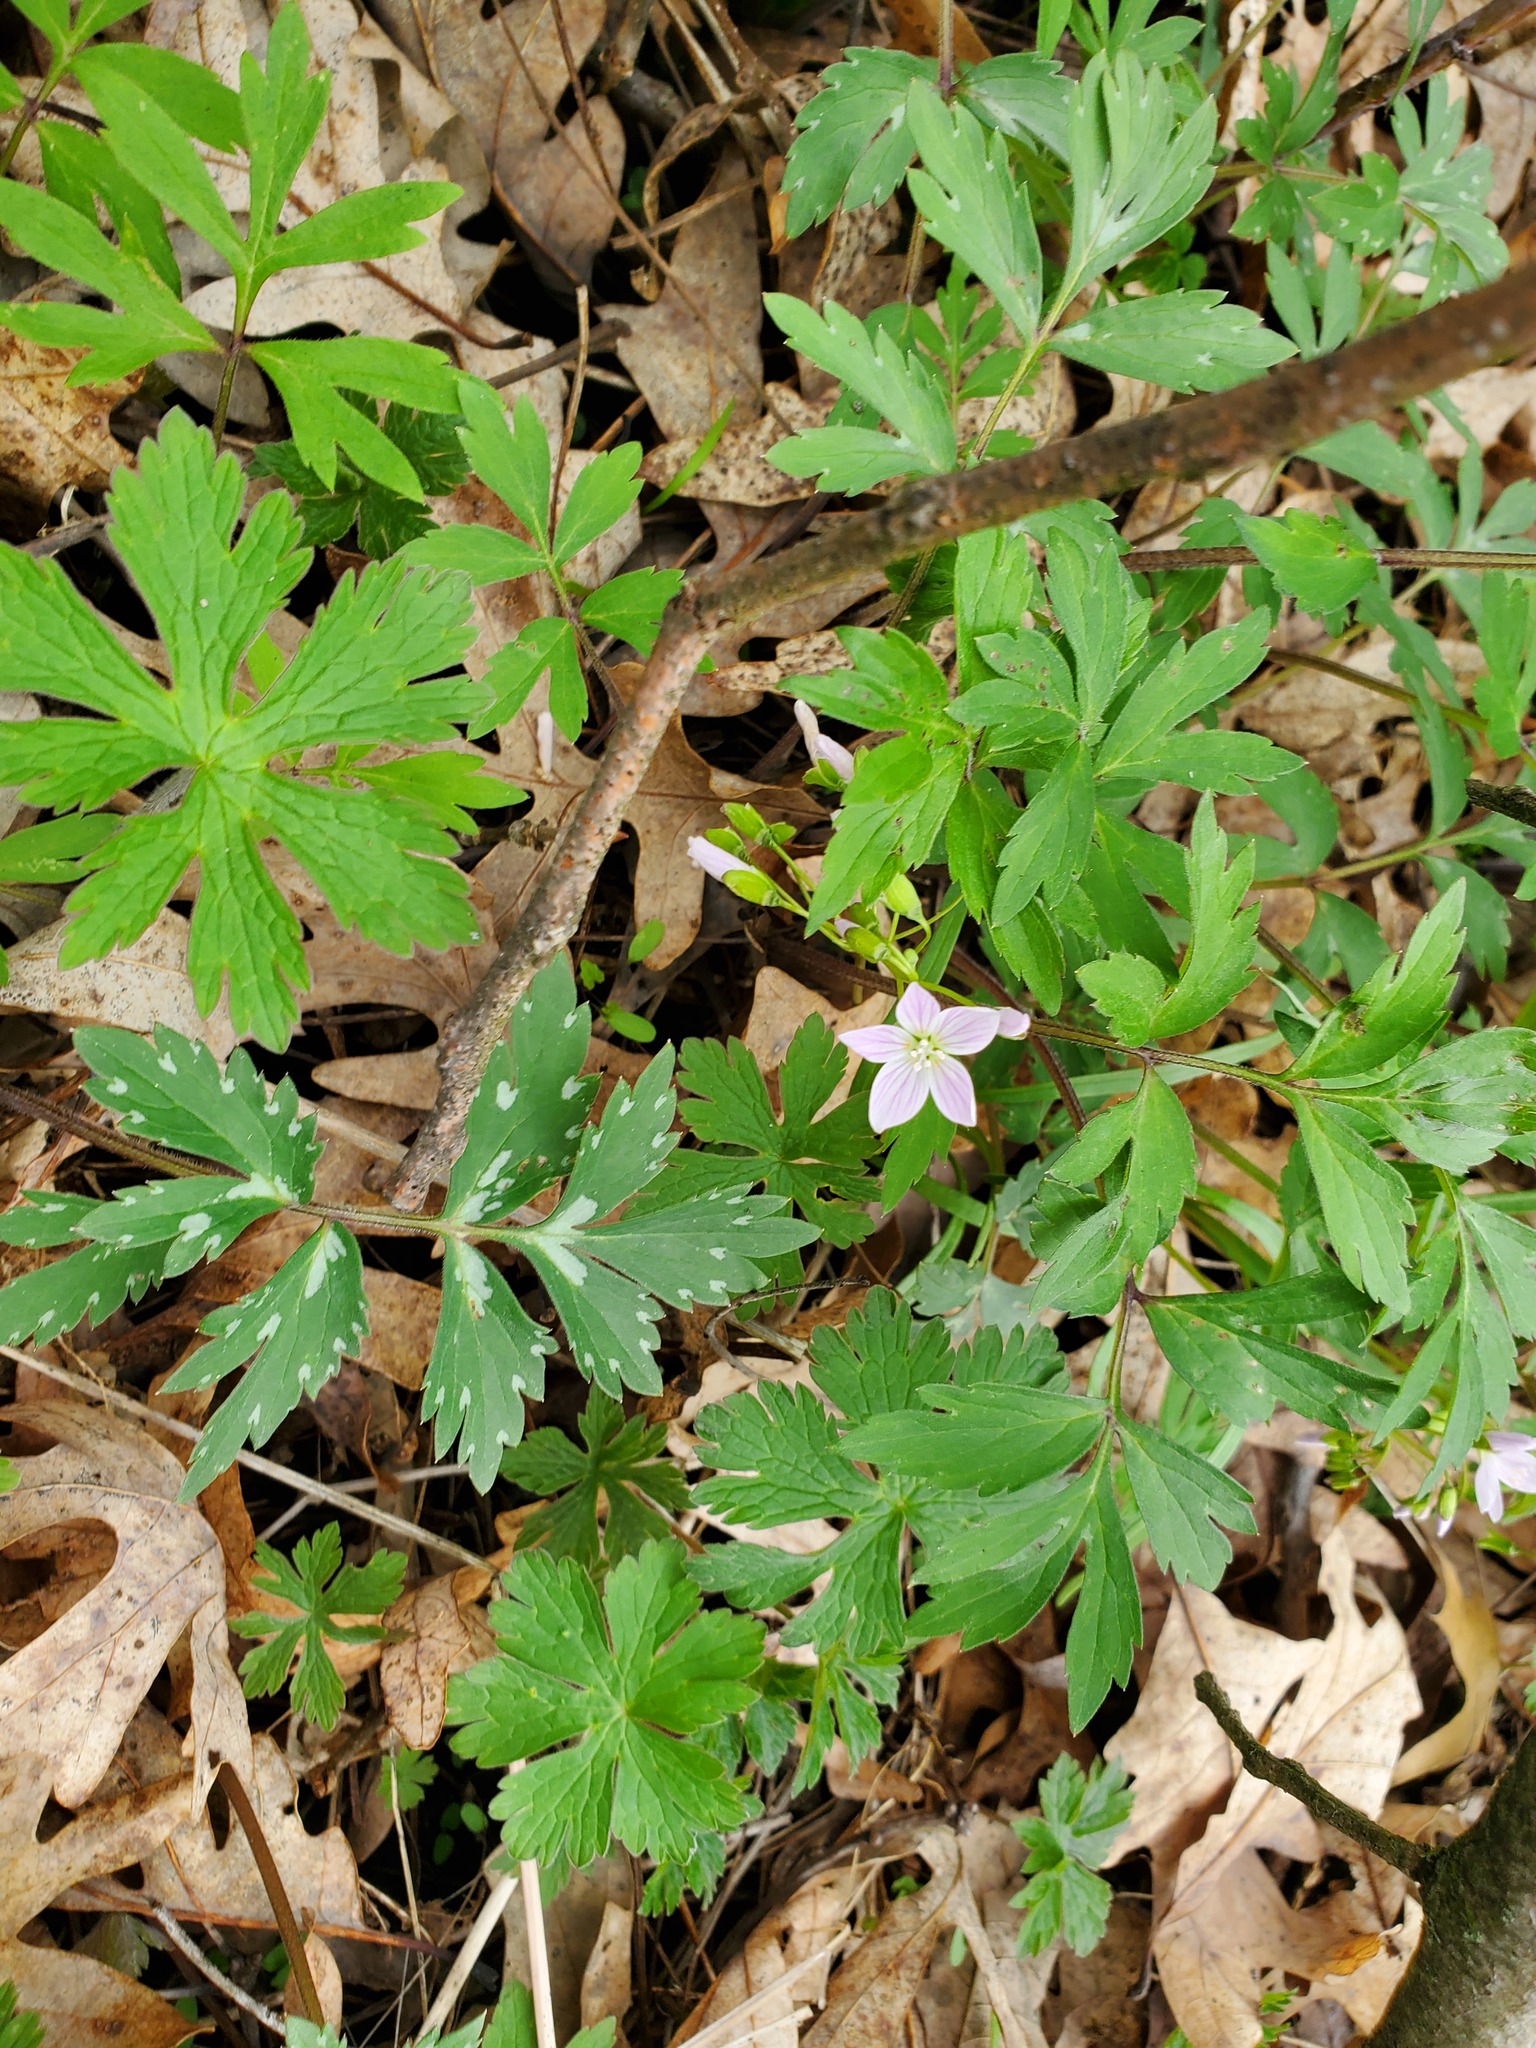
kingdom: Plantae
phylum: Tracheophyta
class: Magnoliopsida
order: Caryophyllales
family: Montiaceae
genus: Claytonia
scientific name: Claytonia virginica
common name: Virginia springbeauty
